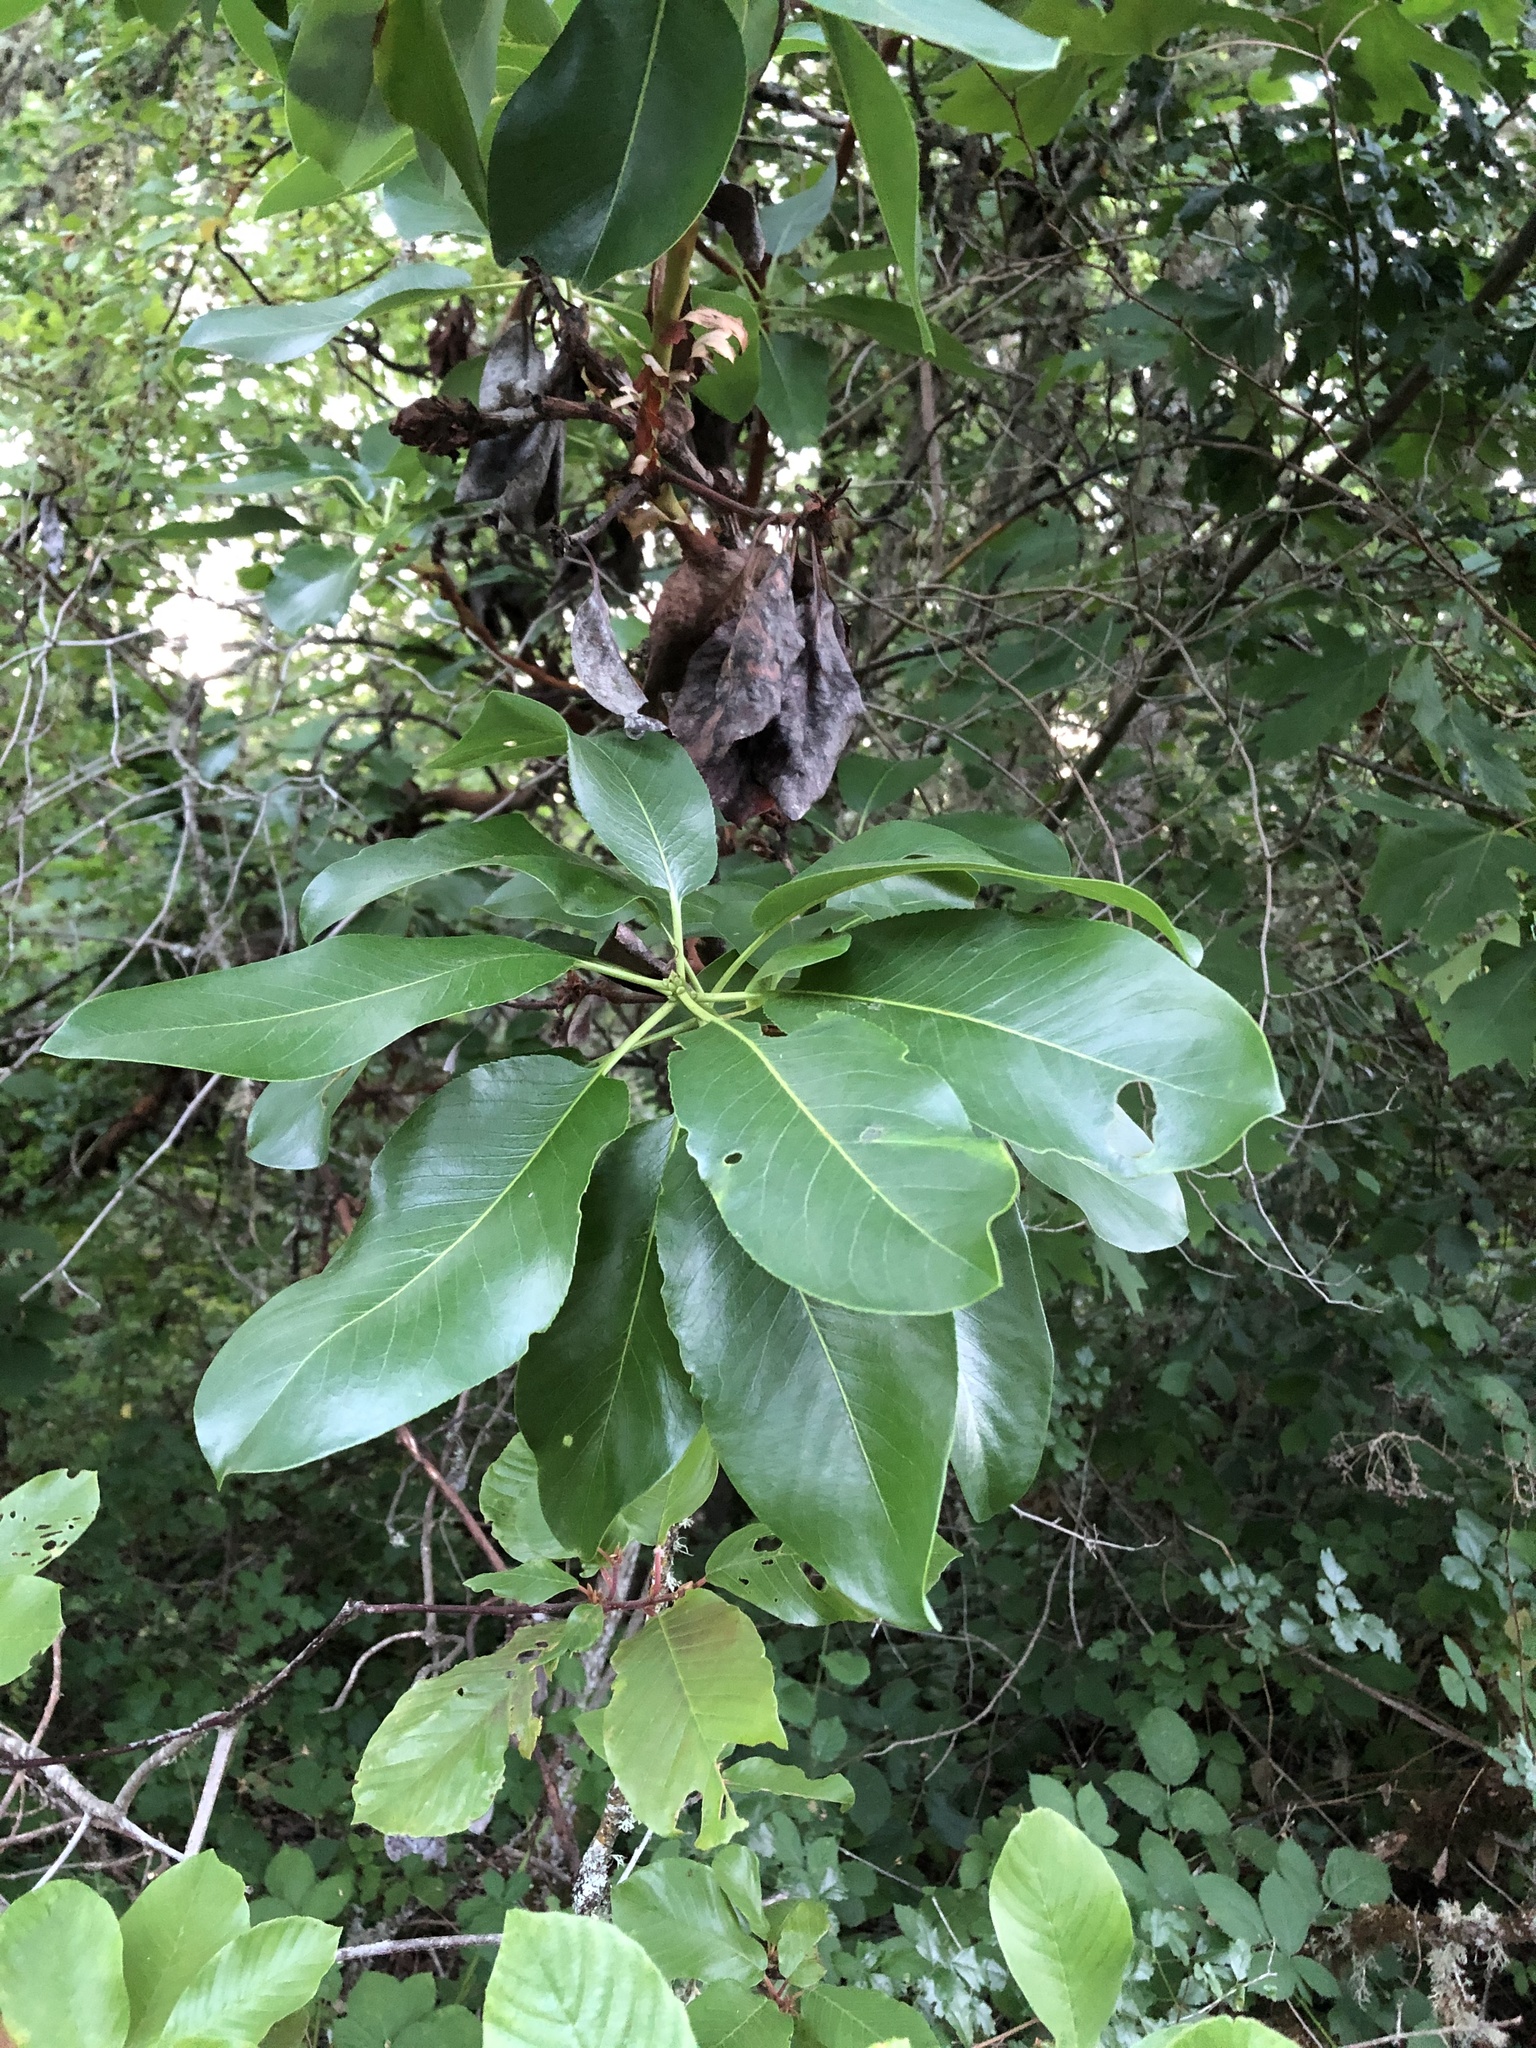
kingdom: Plantae
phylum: Tracheophyta
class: Magnoliopsida
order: Ericales
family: Ericaceae
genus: Arbutus
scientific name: Arbutus menziesii
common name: Pacific madrone
